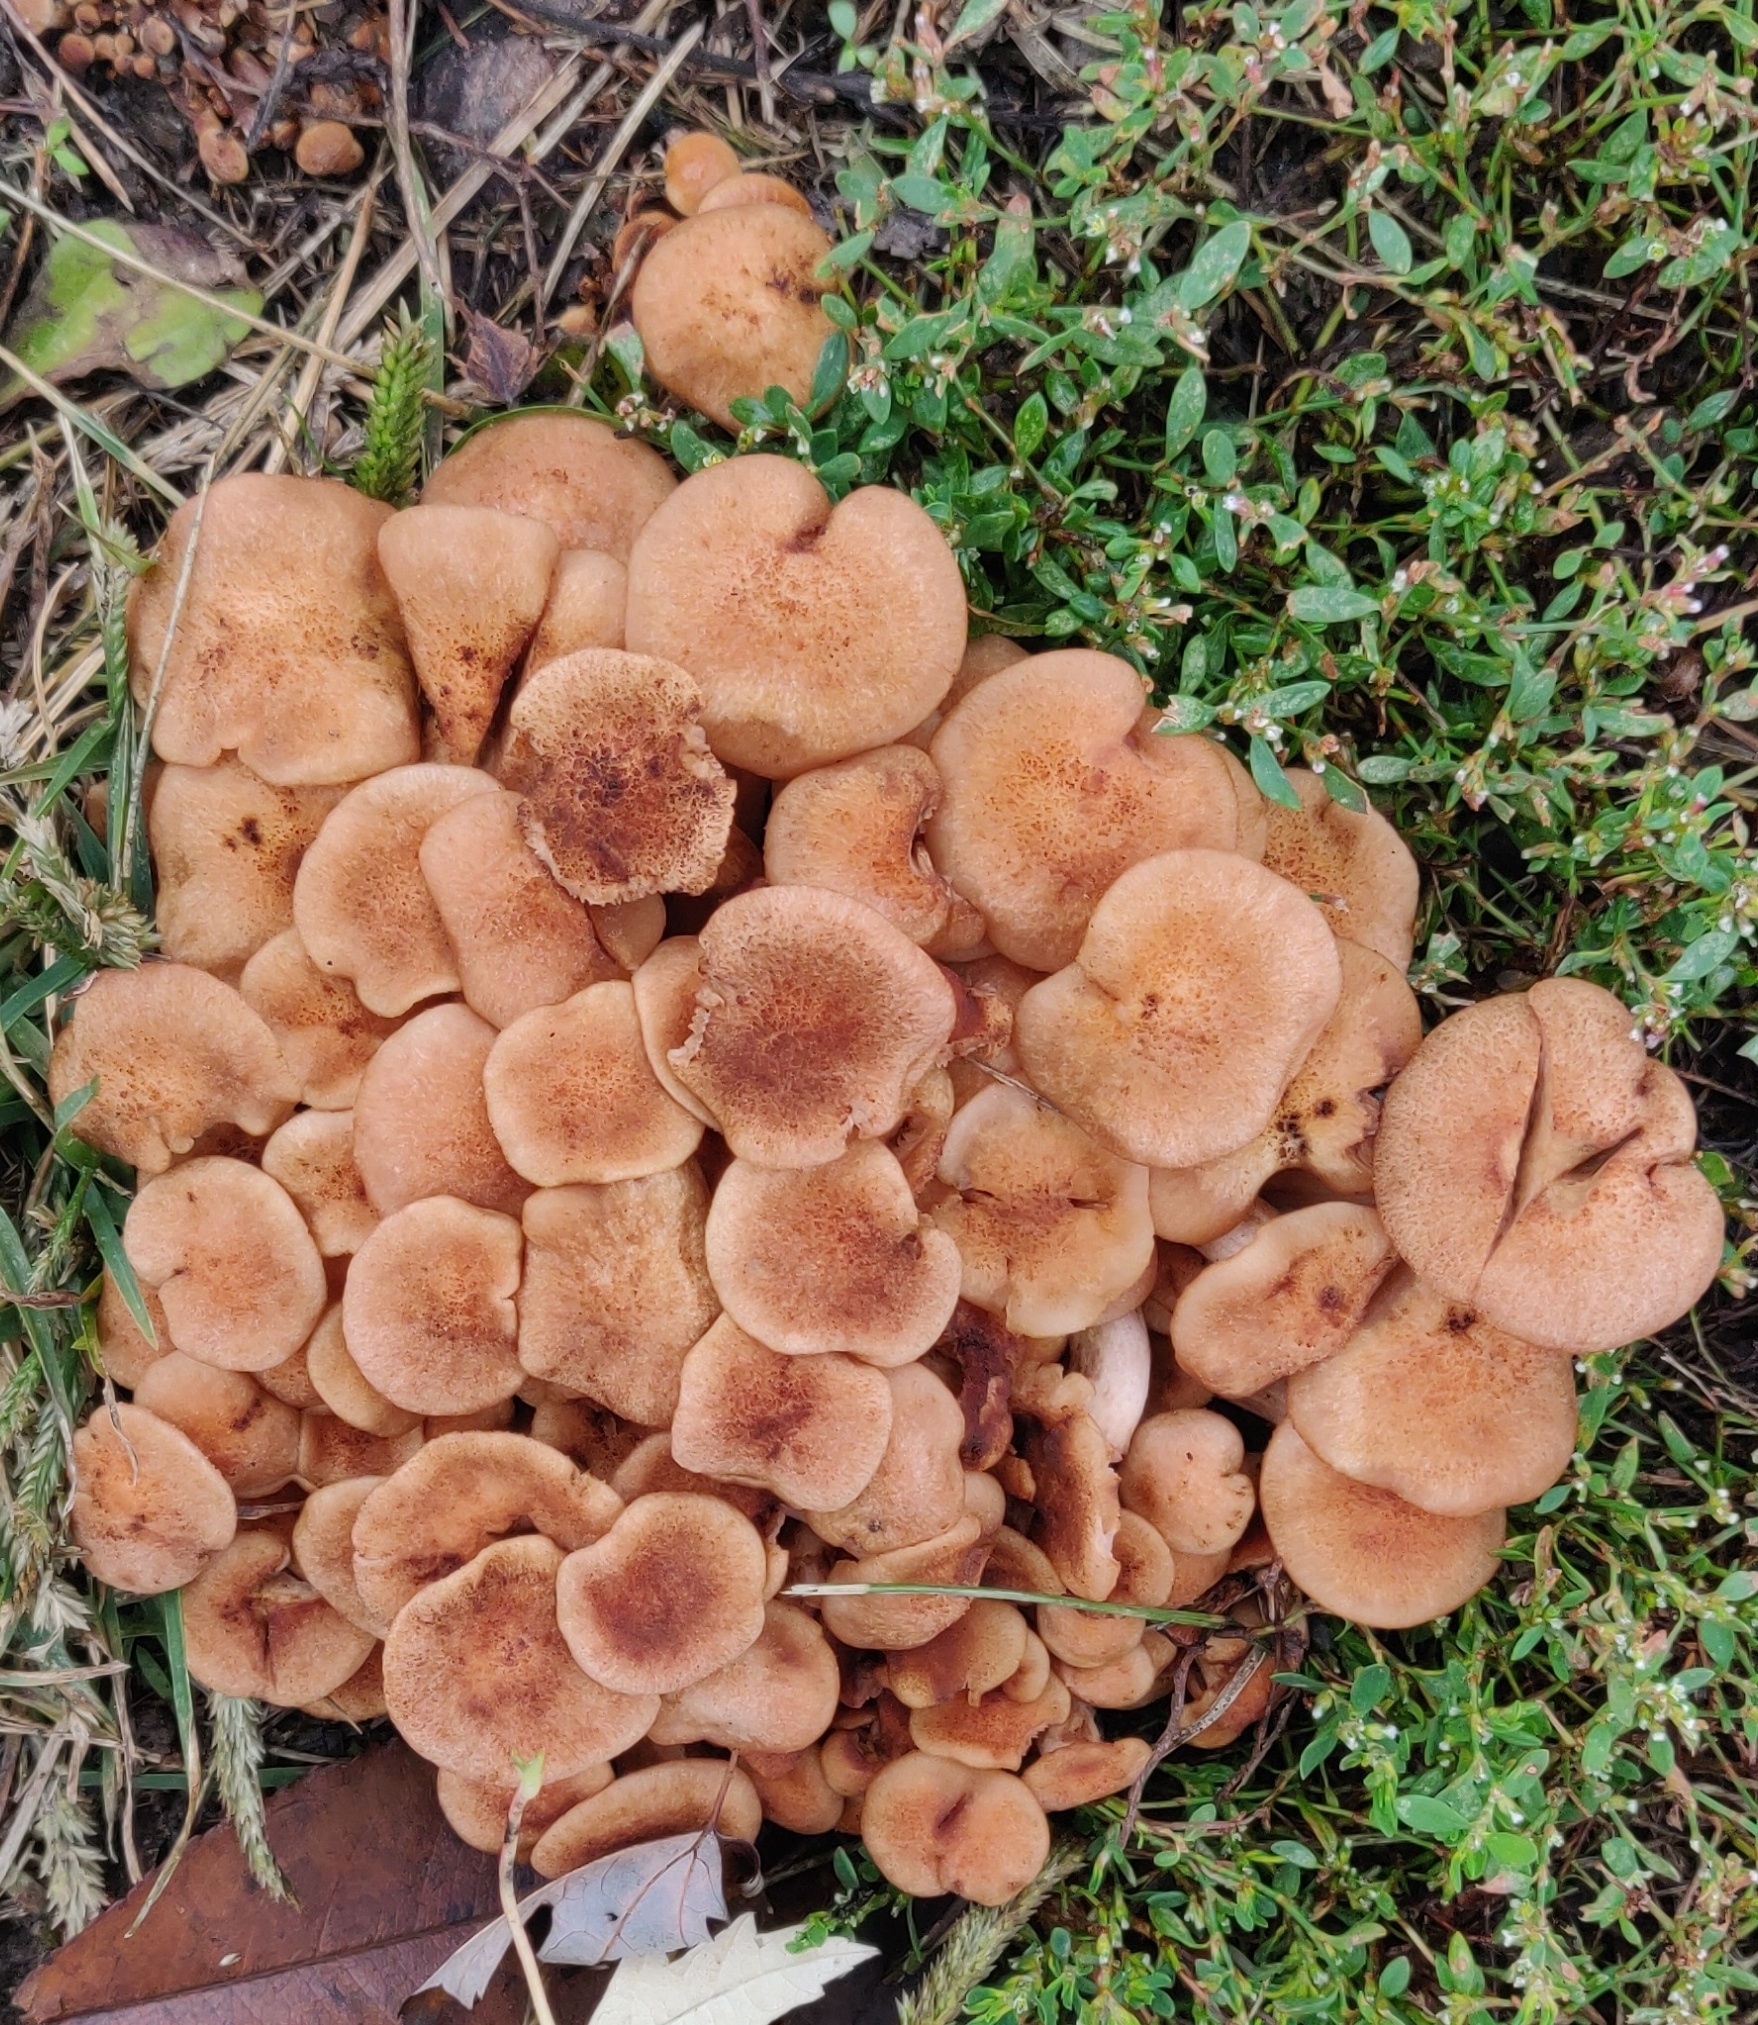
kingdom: Fungi
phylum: Basidiomycota
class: Agaricomycetes
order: Agaricales
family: Physalacriaceae
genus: Desarmillaria
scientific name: Desarmillaria caespitosa
